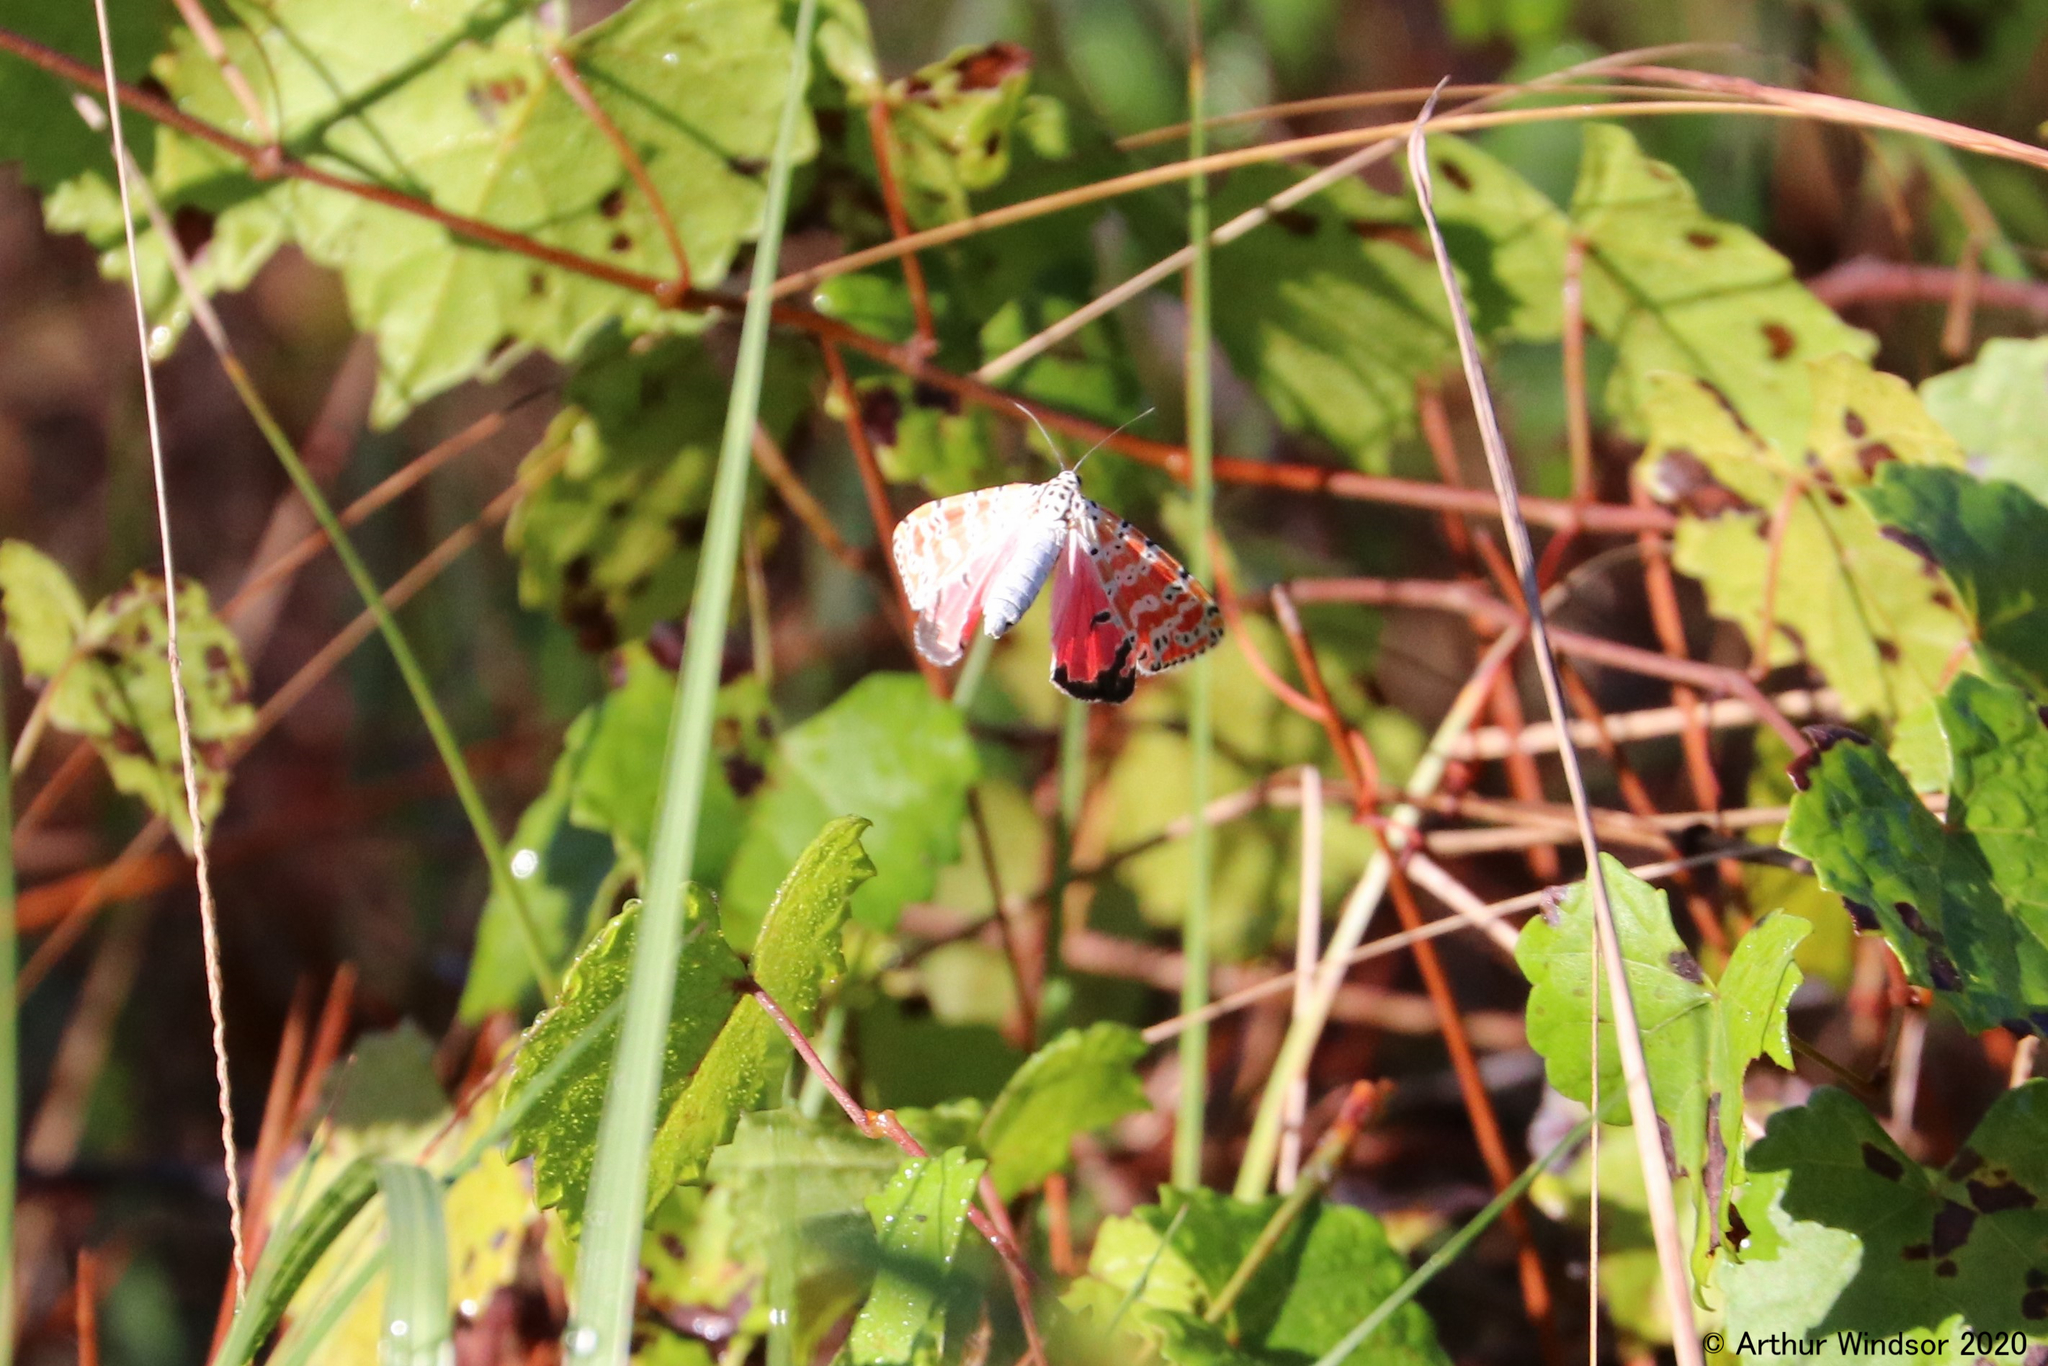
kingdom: Animalia
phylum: Arthropoda
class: Insecta
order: Lepidoptera
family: Erebidae
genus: Utetheisa
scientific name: Utetheisa ornatrix
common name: Beautiful utetheisa
